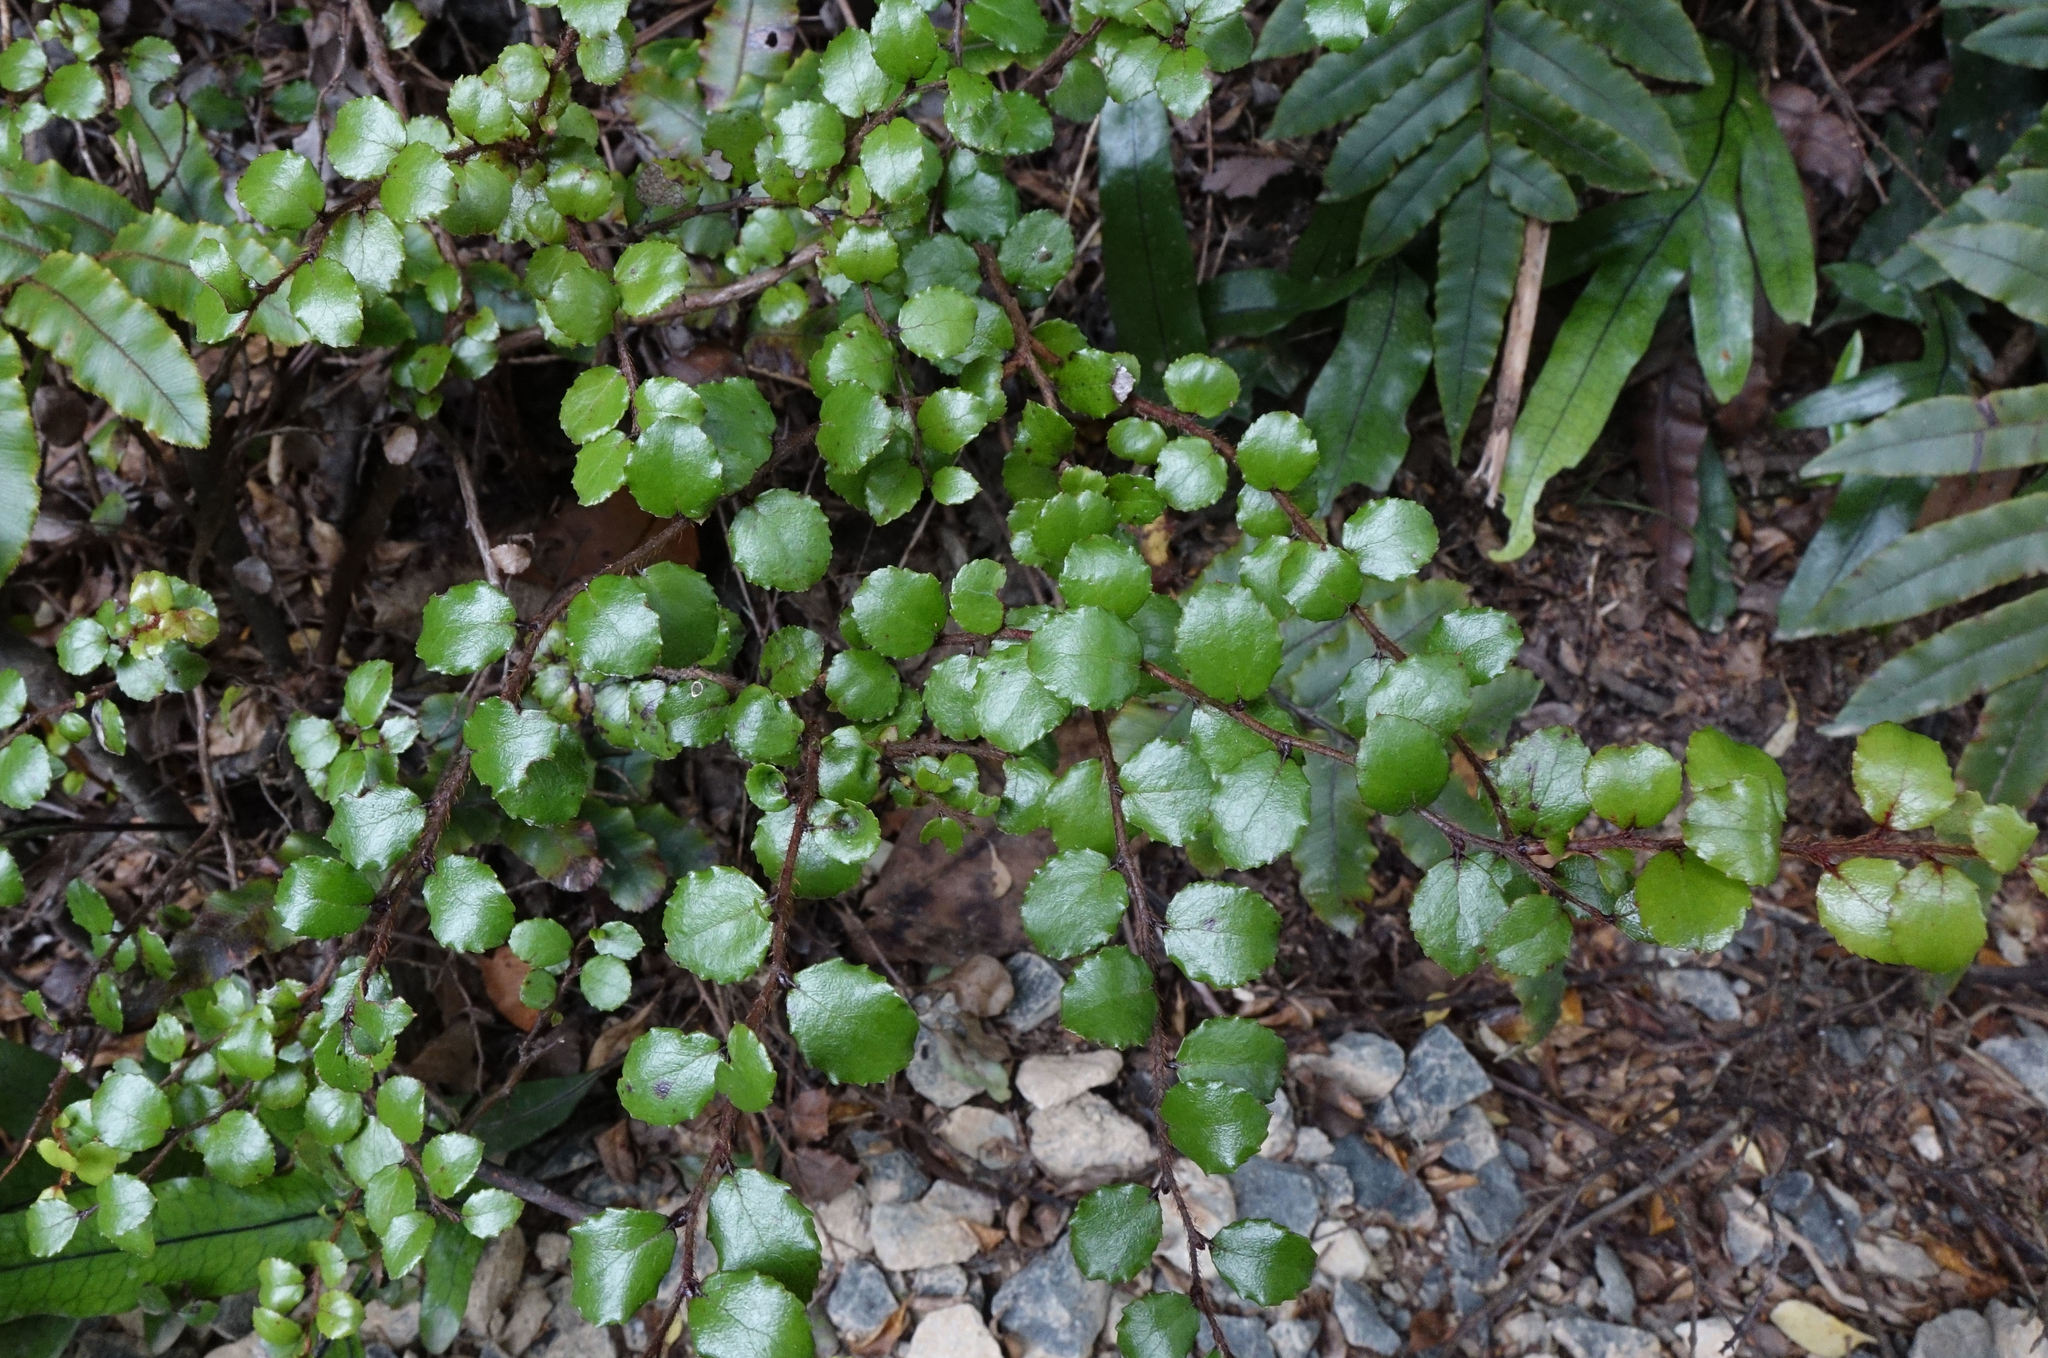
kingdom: Plantae
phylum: Tracheophyta
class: Magnoliopsida
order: Ericales
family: Ericaceae
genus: Gaultheria
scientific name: Gaultheria antipoda
